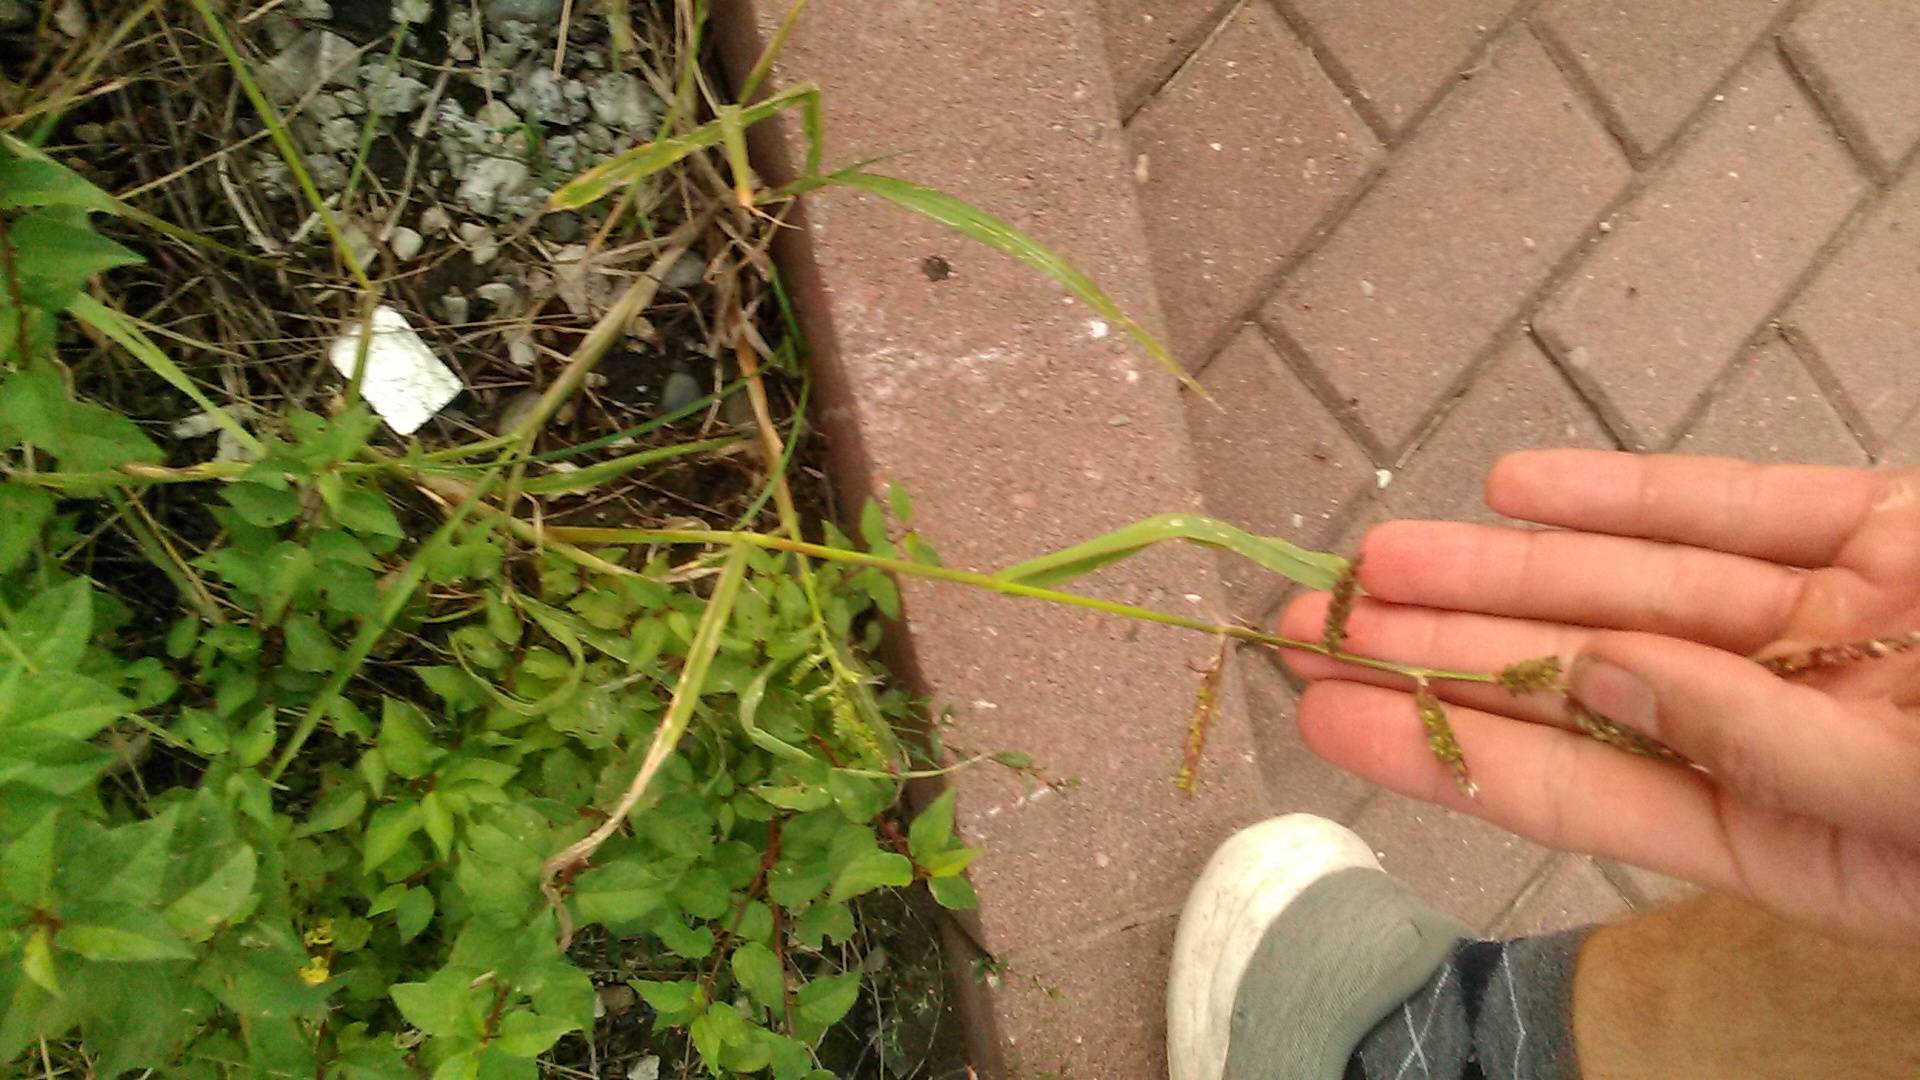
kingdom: Plantae
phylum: Tracheophyta
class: Liliopsida
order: Poales
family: Poaceae
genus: Echinochloa
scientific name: Echinochloa crus-galli
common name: Cockspur
